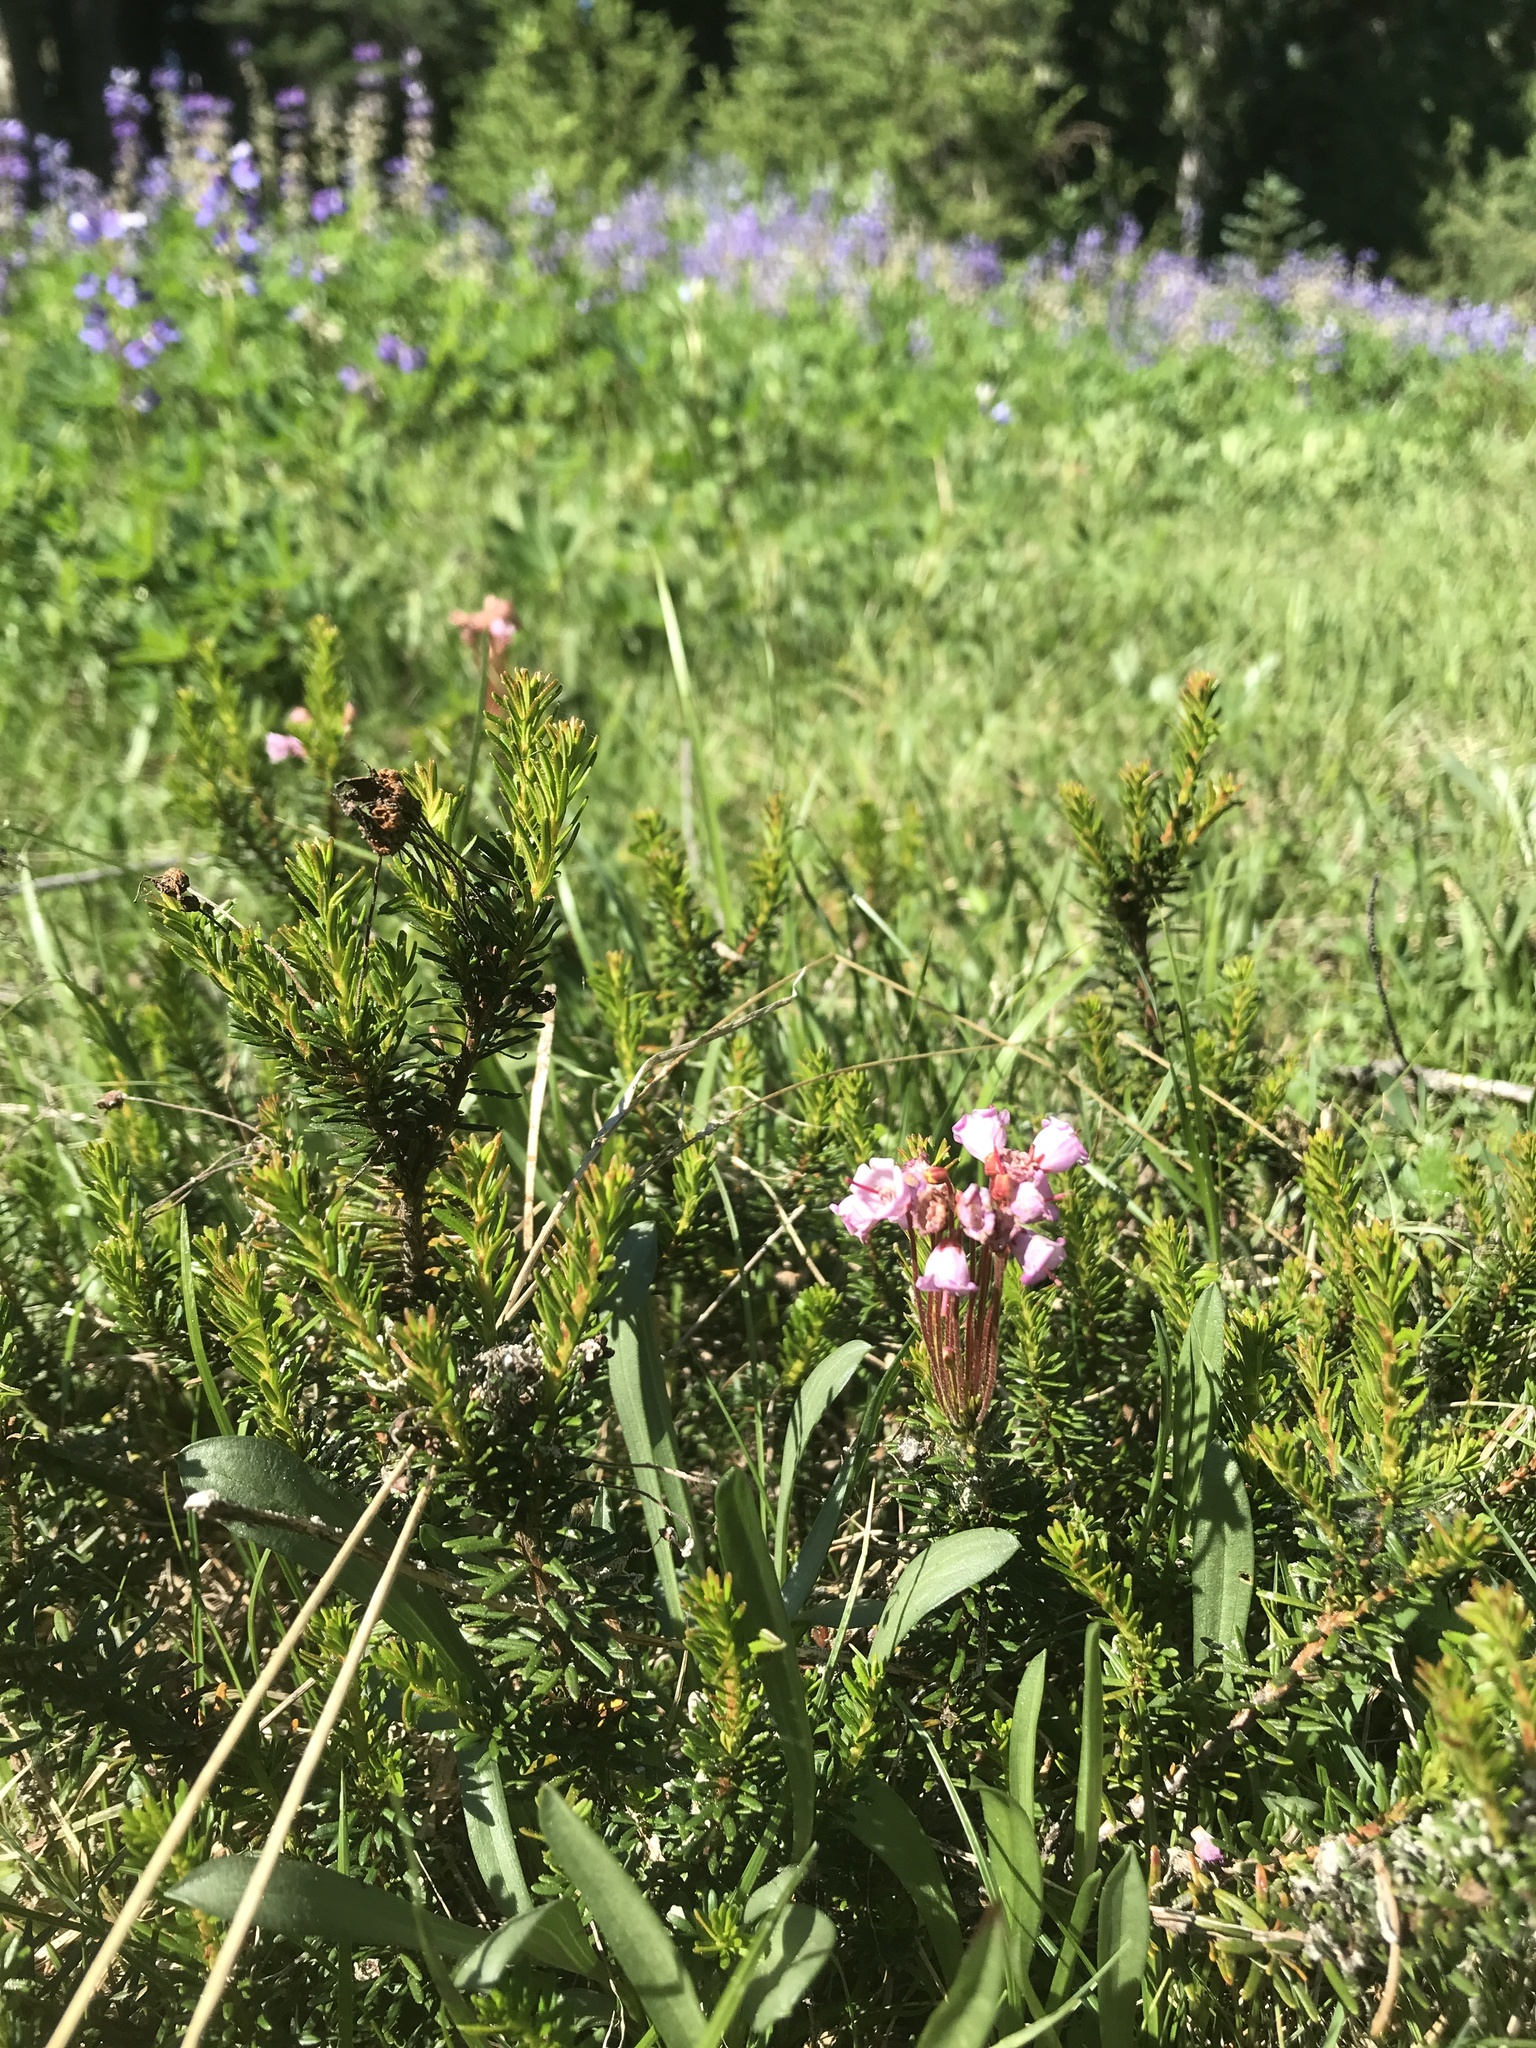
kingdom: Plantae
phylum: Tracheophyta
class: Magnoliopsida
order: Ericales
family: Ericaceae
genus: Phyllodoce
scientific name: Phyllodoce empetriformis
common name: Pink mountain heather
